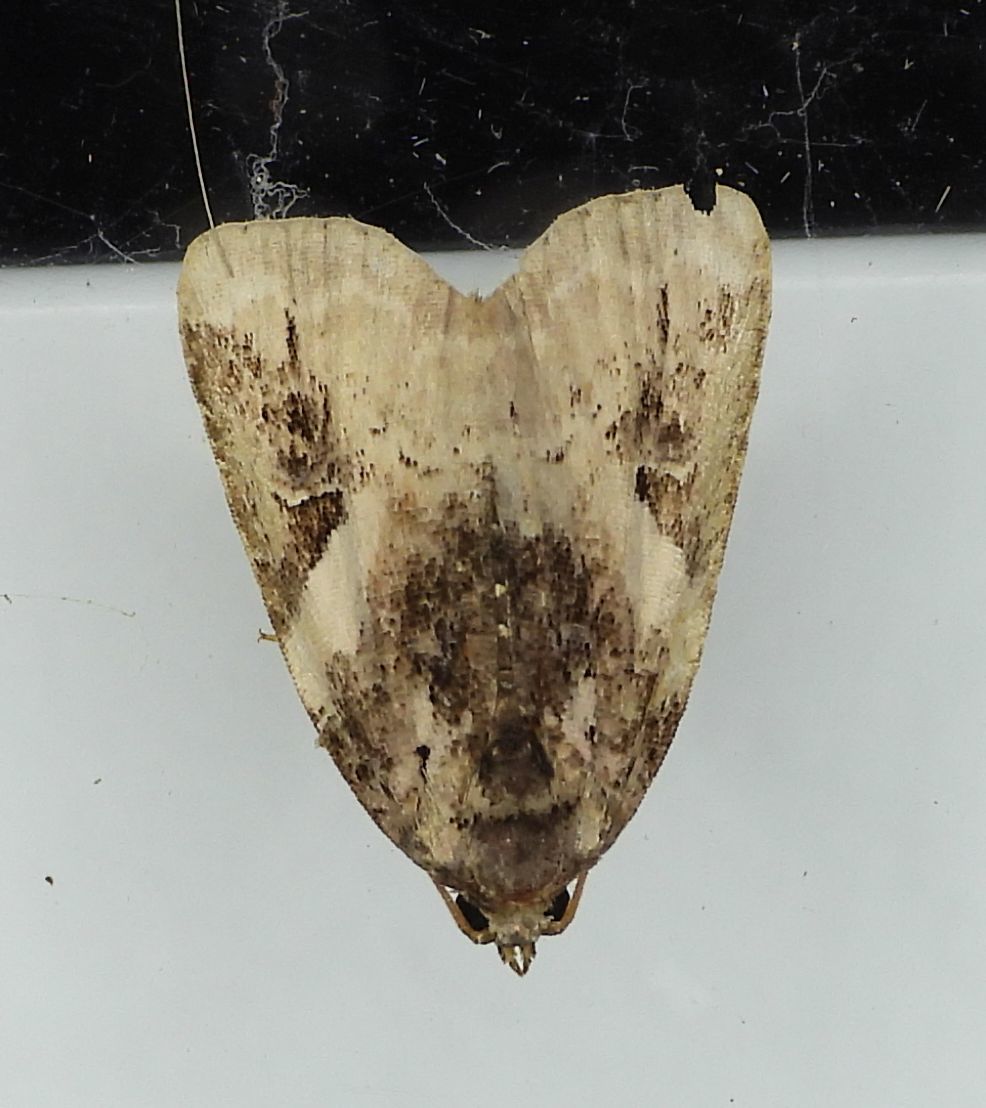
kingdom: Animalia
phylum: Arthropoda
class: Insecta
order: Lepidoptera
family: Noctuidae
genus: Pseudeustrotia
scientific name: Pseudeustrotia carneola
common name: Pink-barred lithacodia moth
